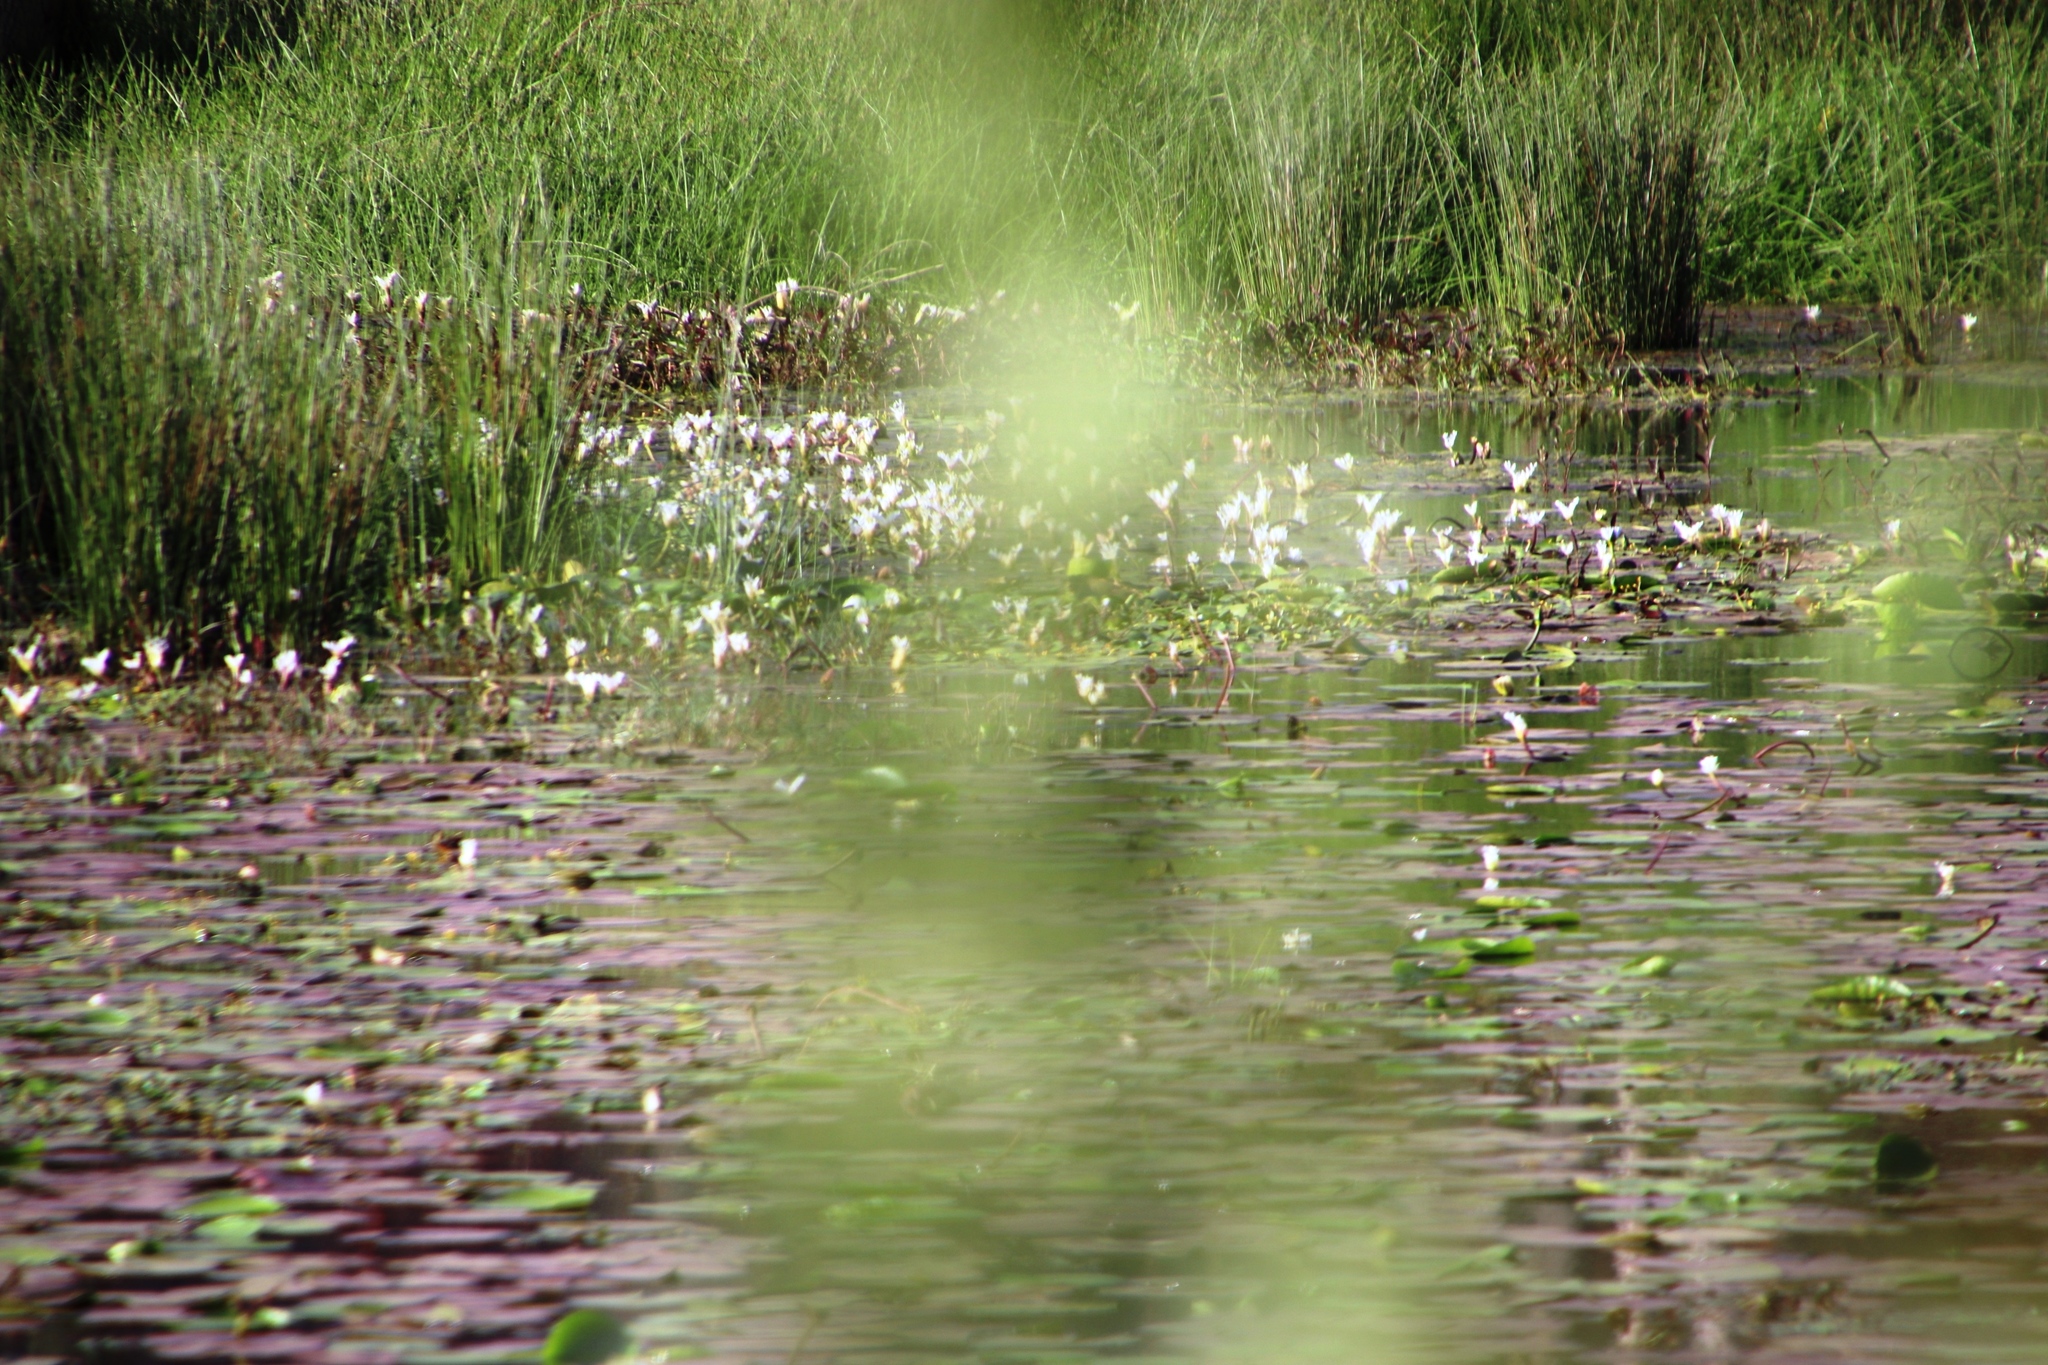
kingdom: Plantae
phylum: Tracheophyta
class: Liliopsida
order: Alismatales
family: Aponogetonaceae
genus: Aponogeton
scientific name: Aponogeton distachyos
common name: Cape-pondweed
